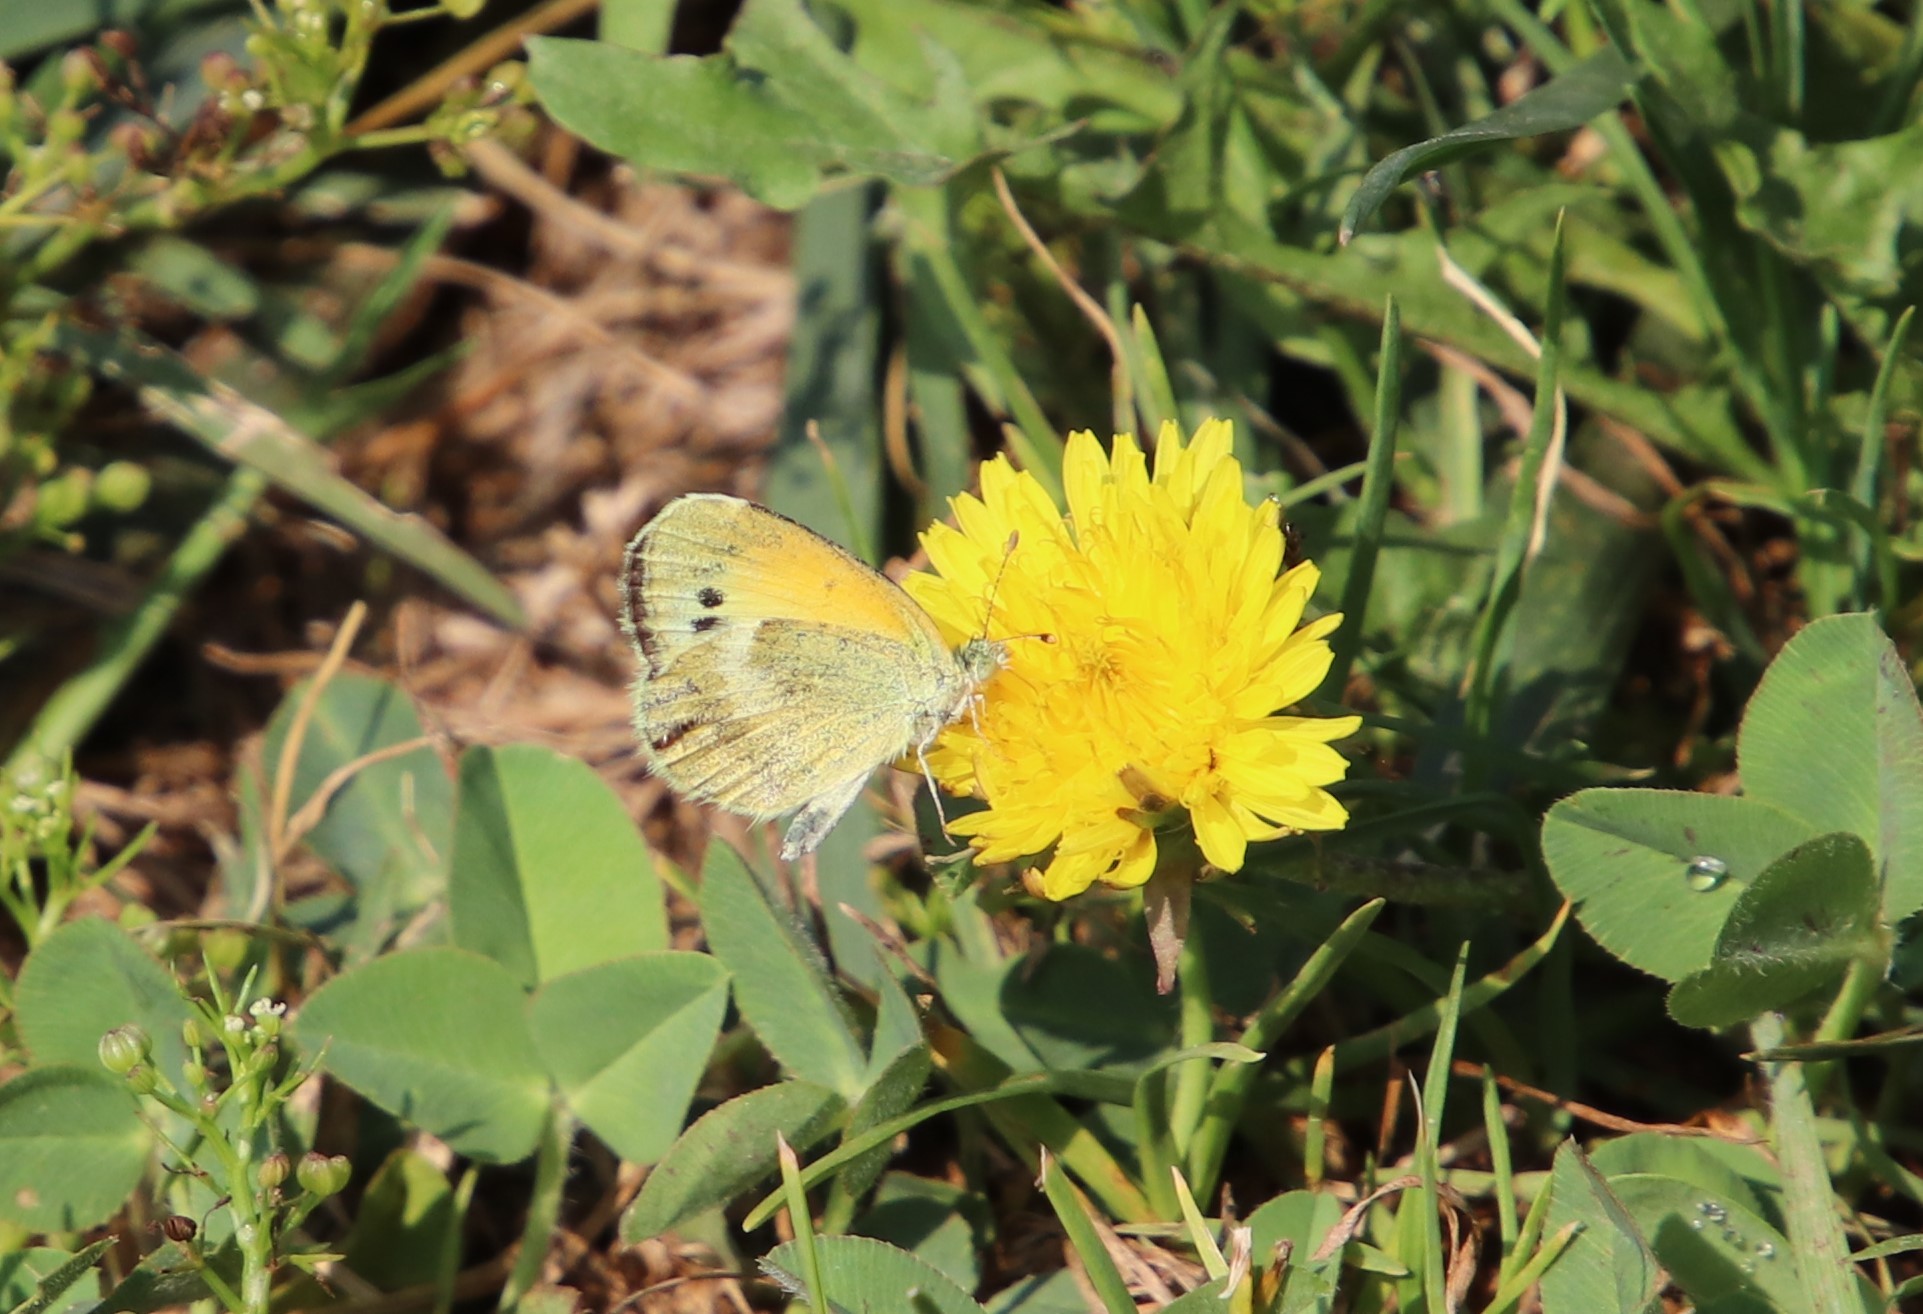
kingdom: Animalia
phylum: Arthropoda
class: Insecta
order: Lepidoptera
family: Pieridae
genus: Nathalis
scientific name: Nathalis iole
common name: Dainty sulphur
